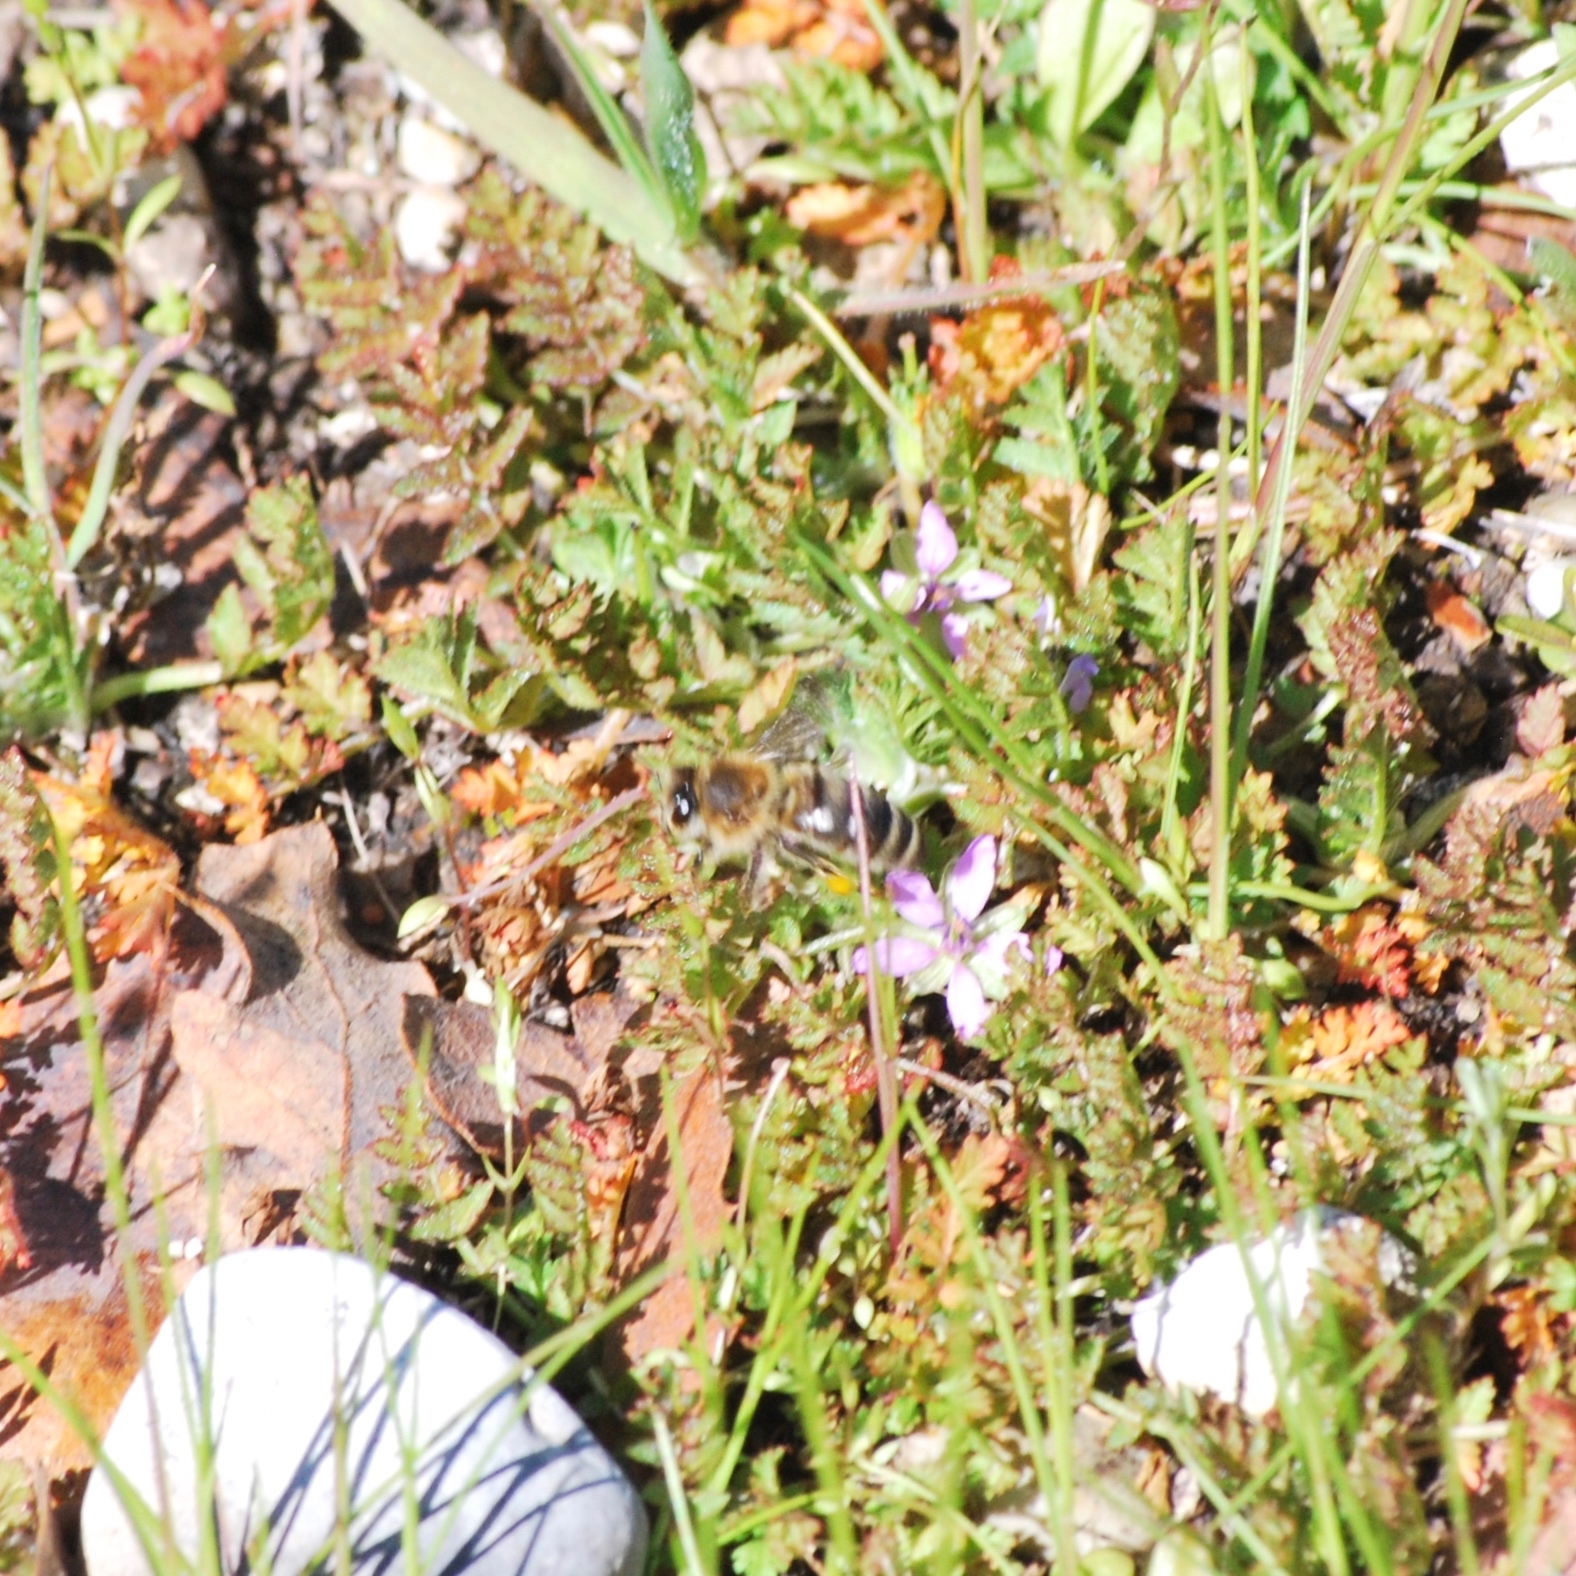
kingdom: Animalia
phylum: Arthropoda
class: Insecta
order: Hymenoptera
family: Apidae
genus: Apis
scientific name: Apis mellifera
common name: Honey bee
